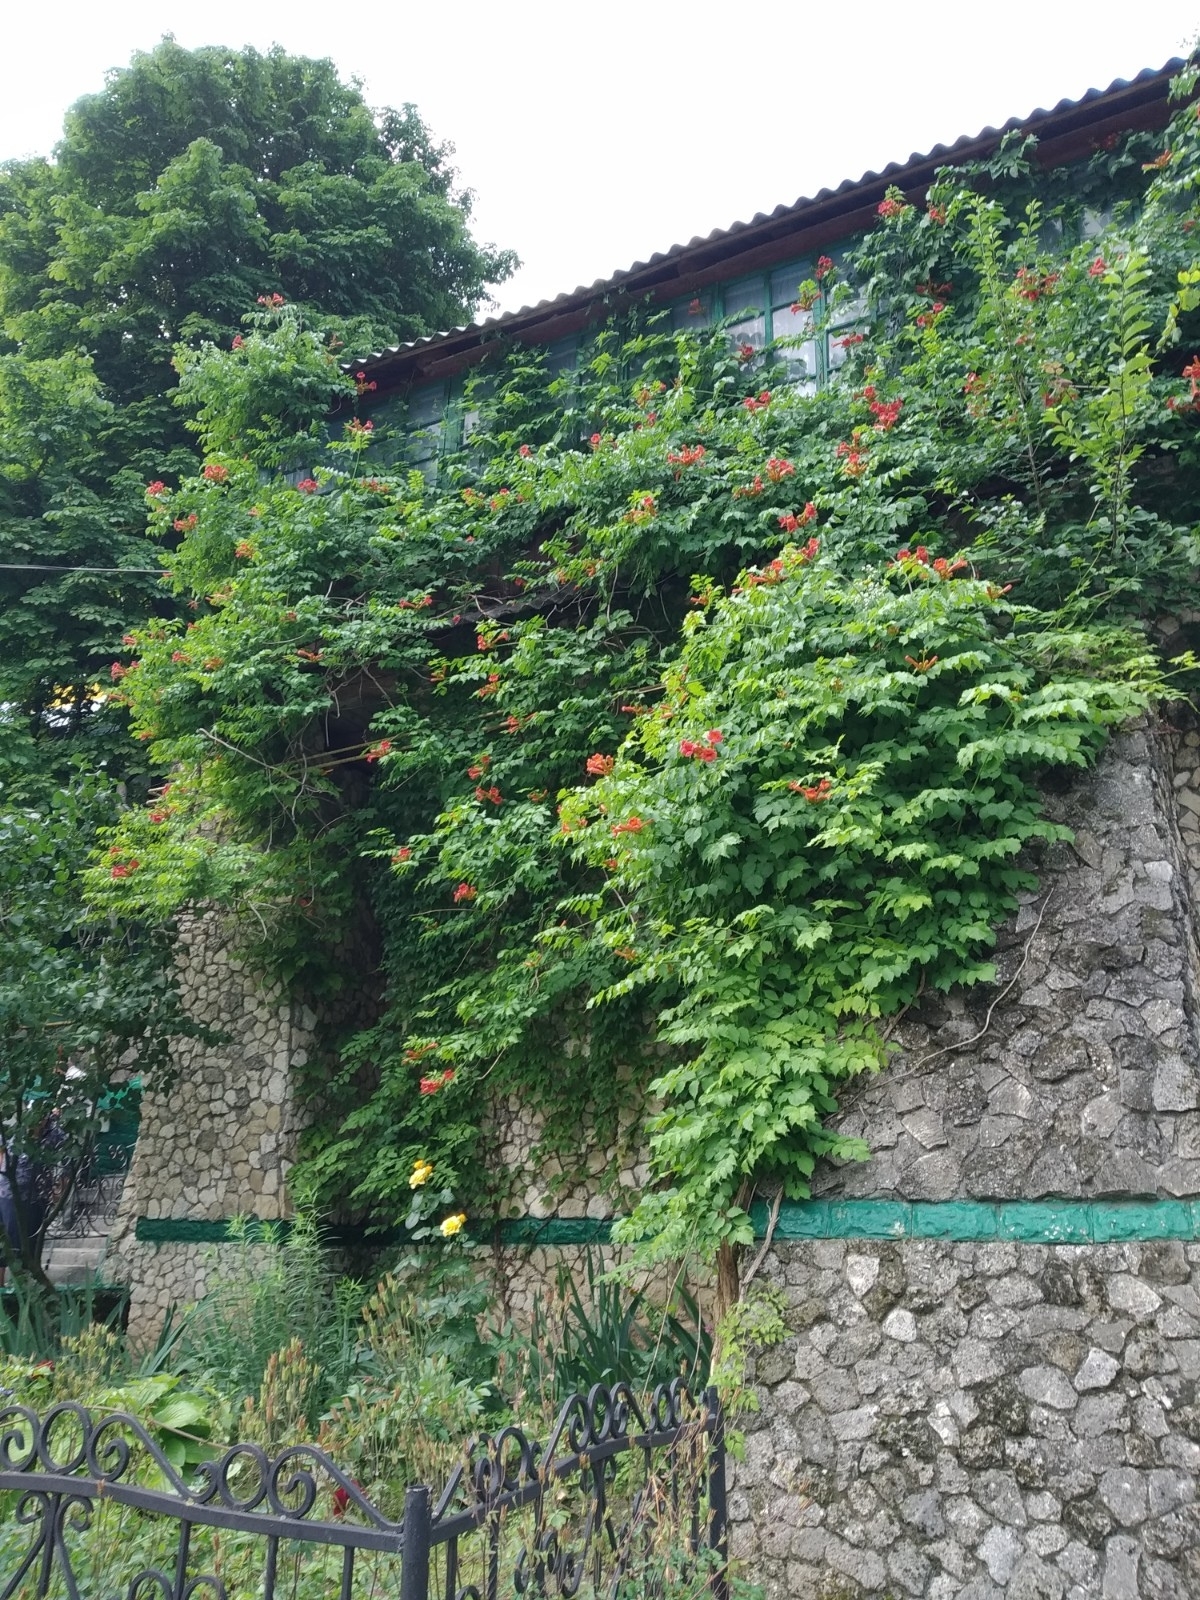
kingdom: Plantae
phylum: Tracheophyta
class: Magnoliopsida
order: Lamiales
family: Bignoniaceae
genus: Campsis
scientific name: Campsis radicans
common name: Trumpet-creeper
